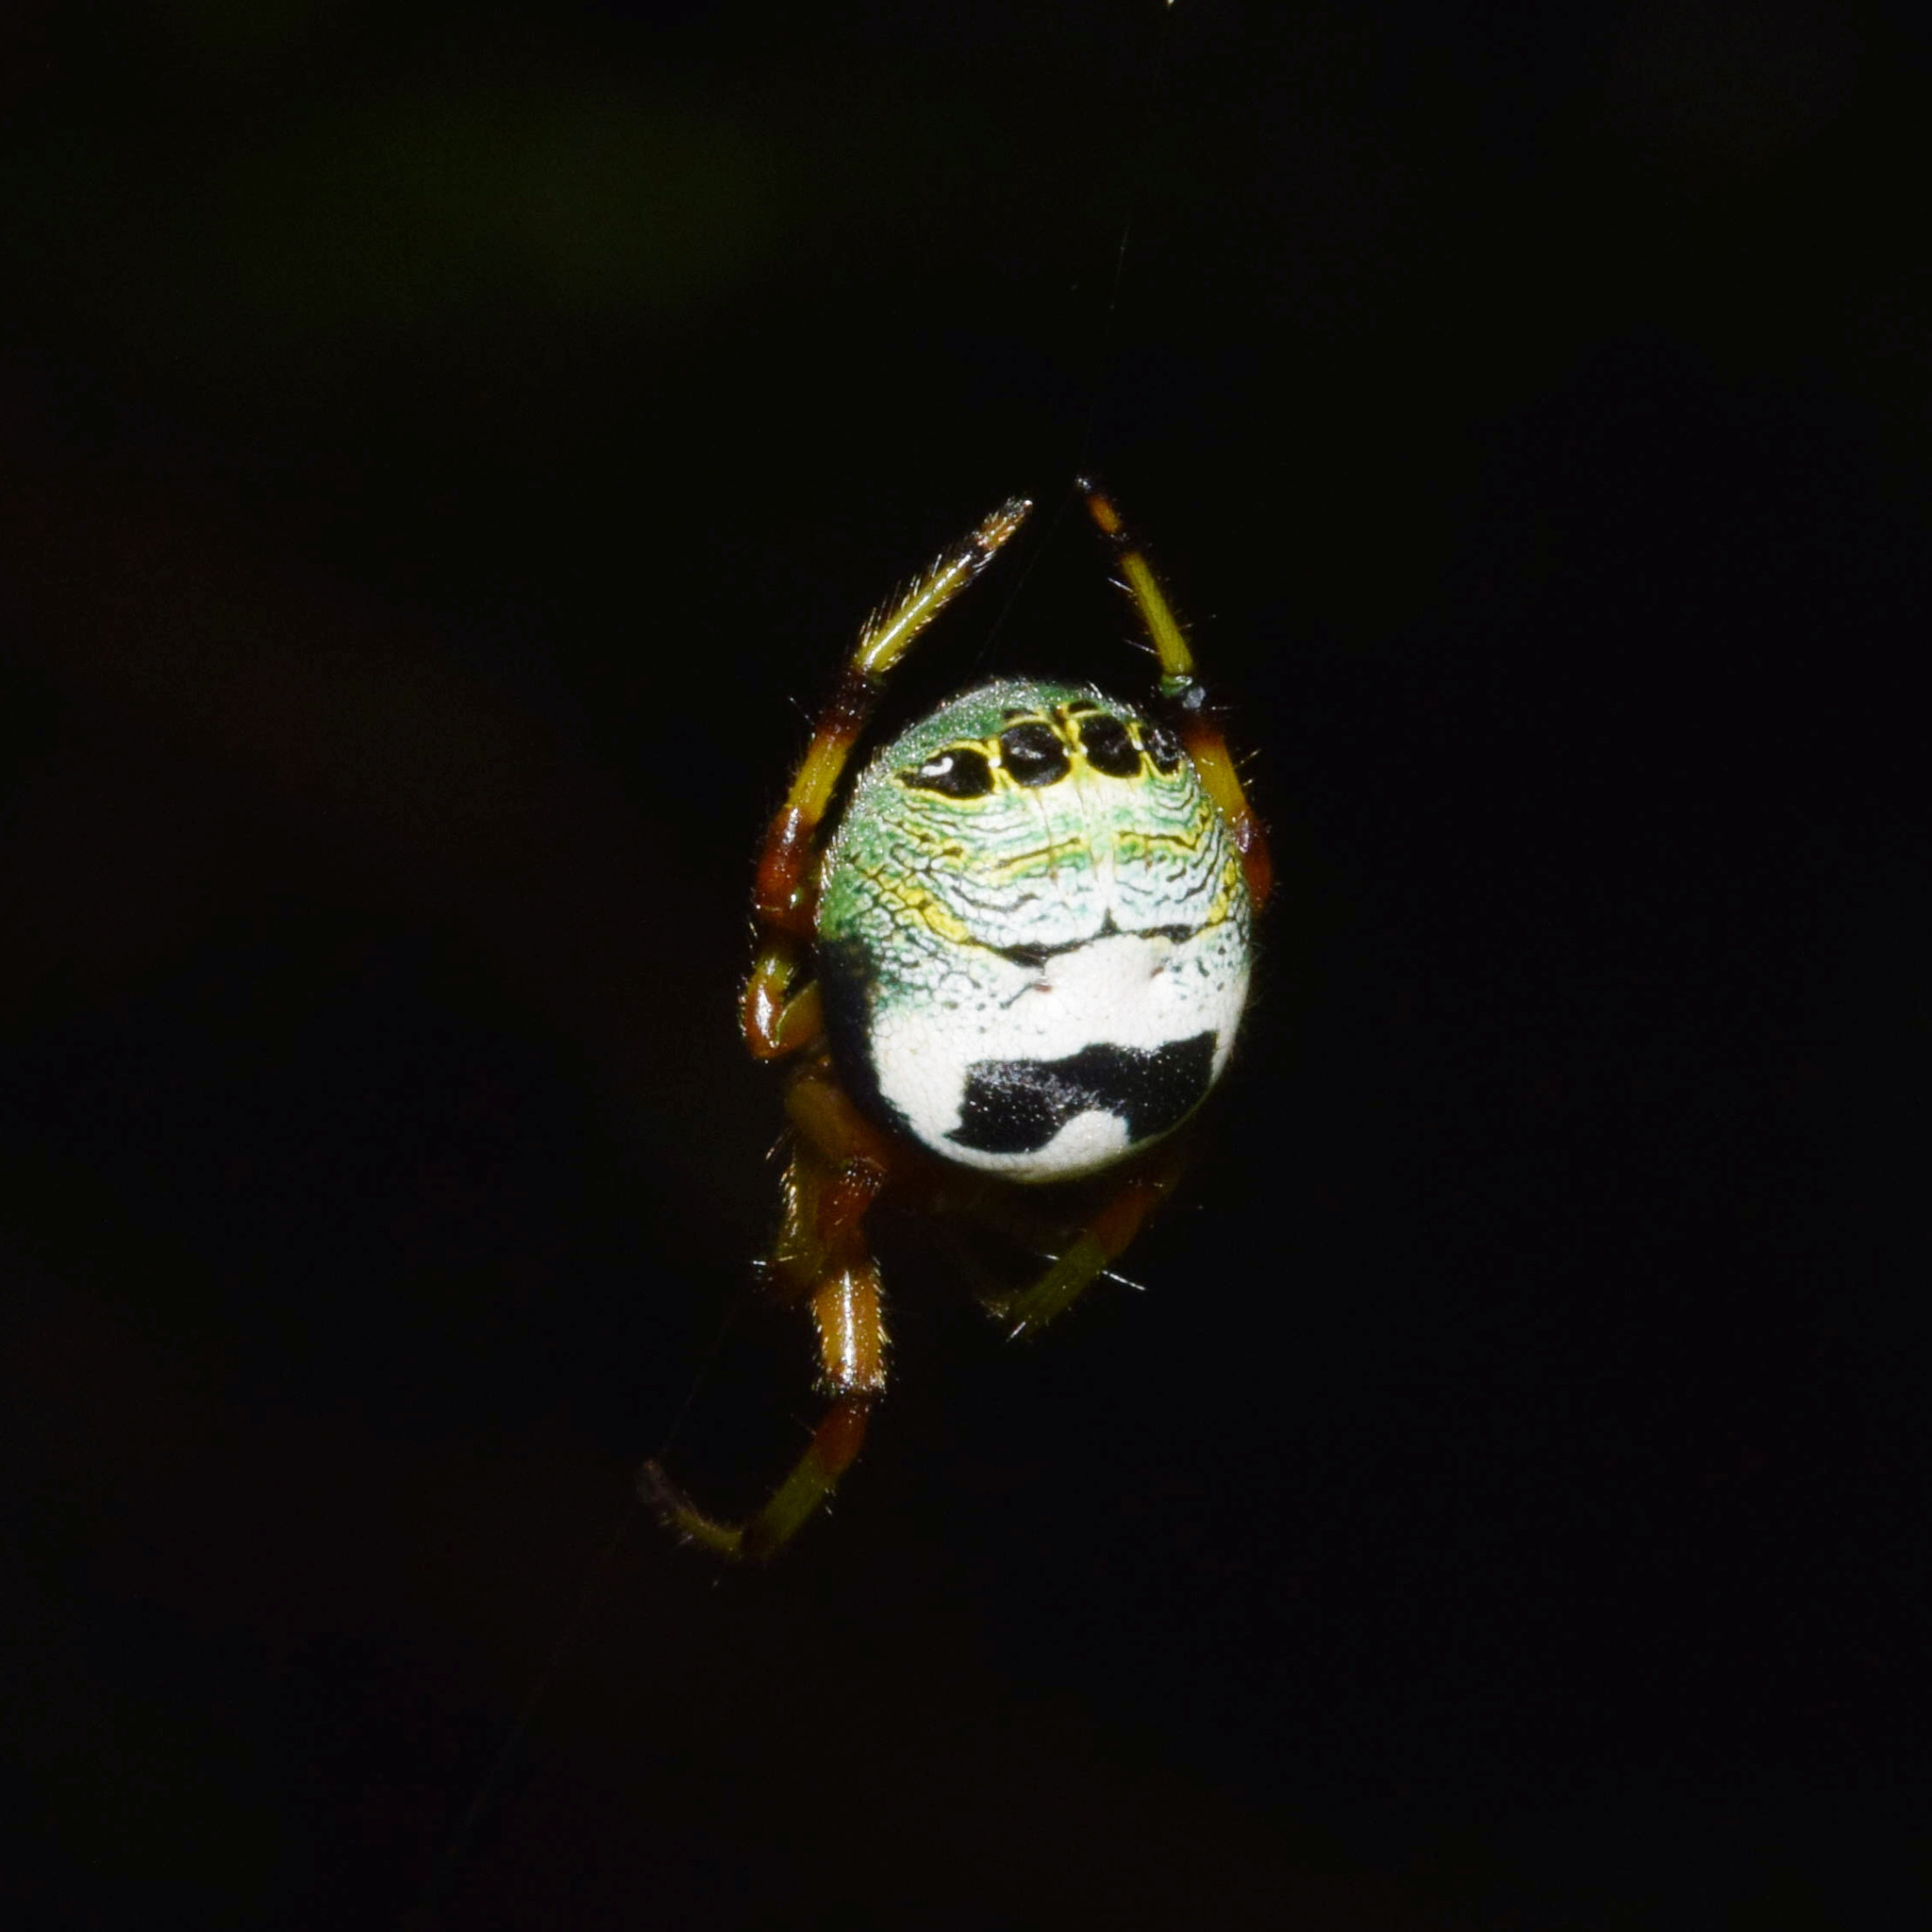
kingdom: Animalia
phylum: Arthropoda
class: Arachnida
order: Araneae
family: Araneidae
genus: Bijoaraneus
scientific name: Bijoaraneus legonensis
